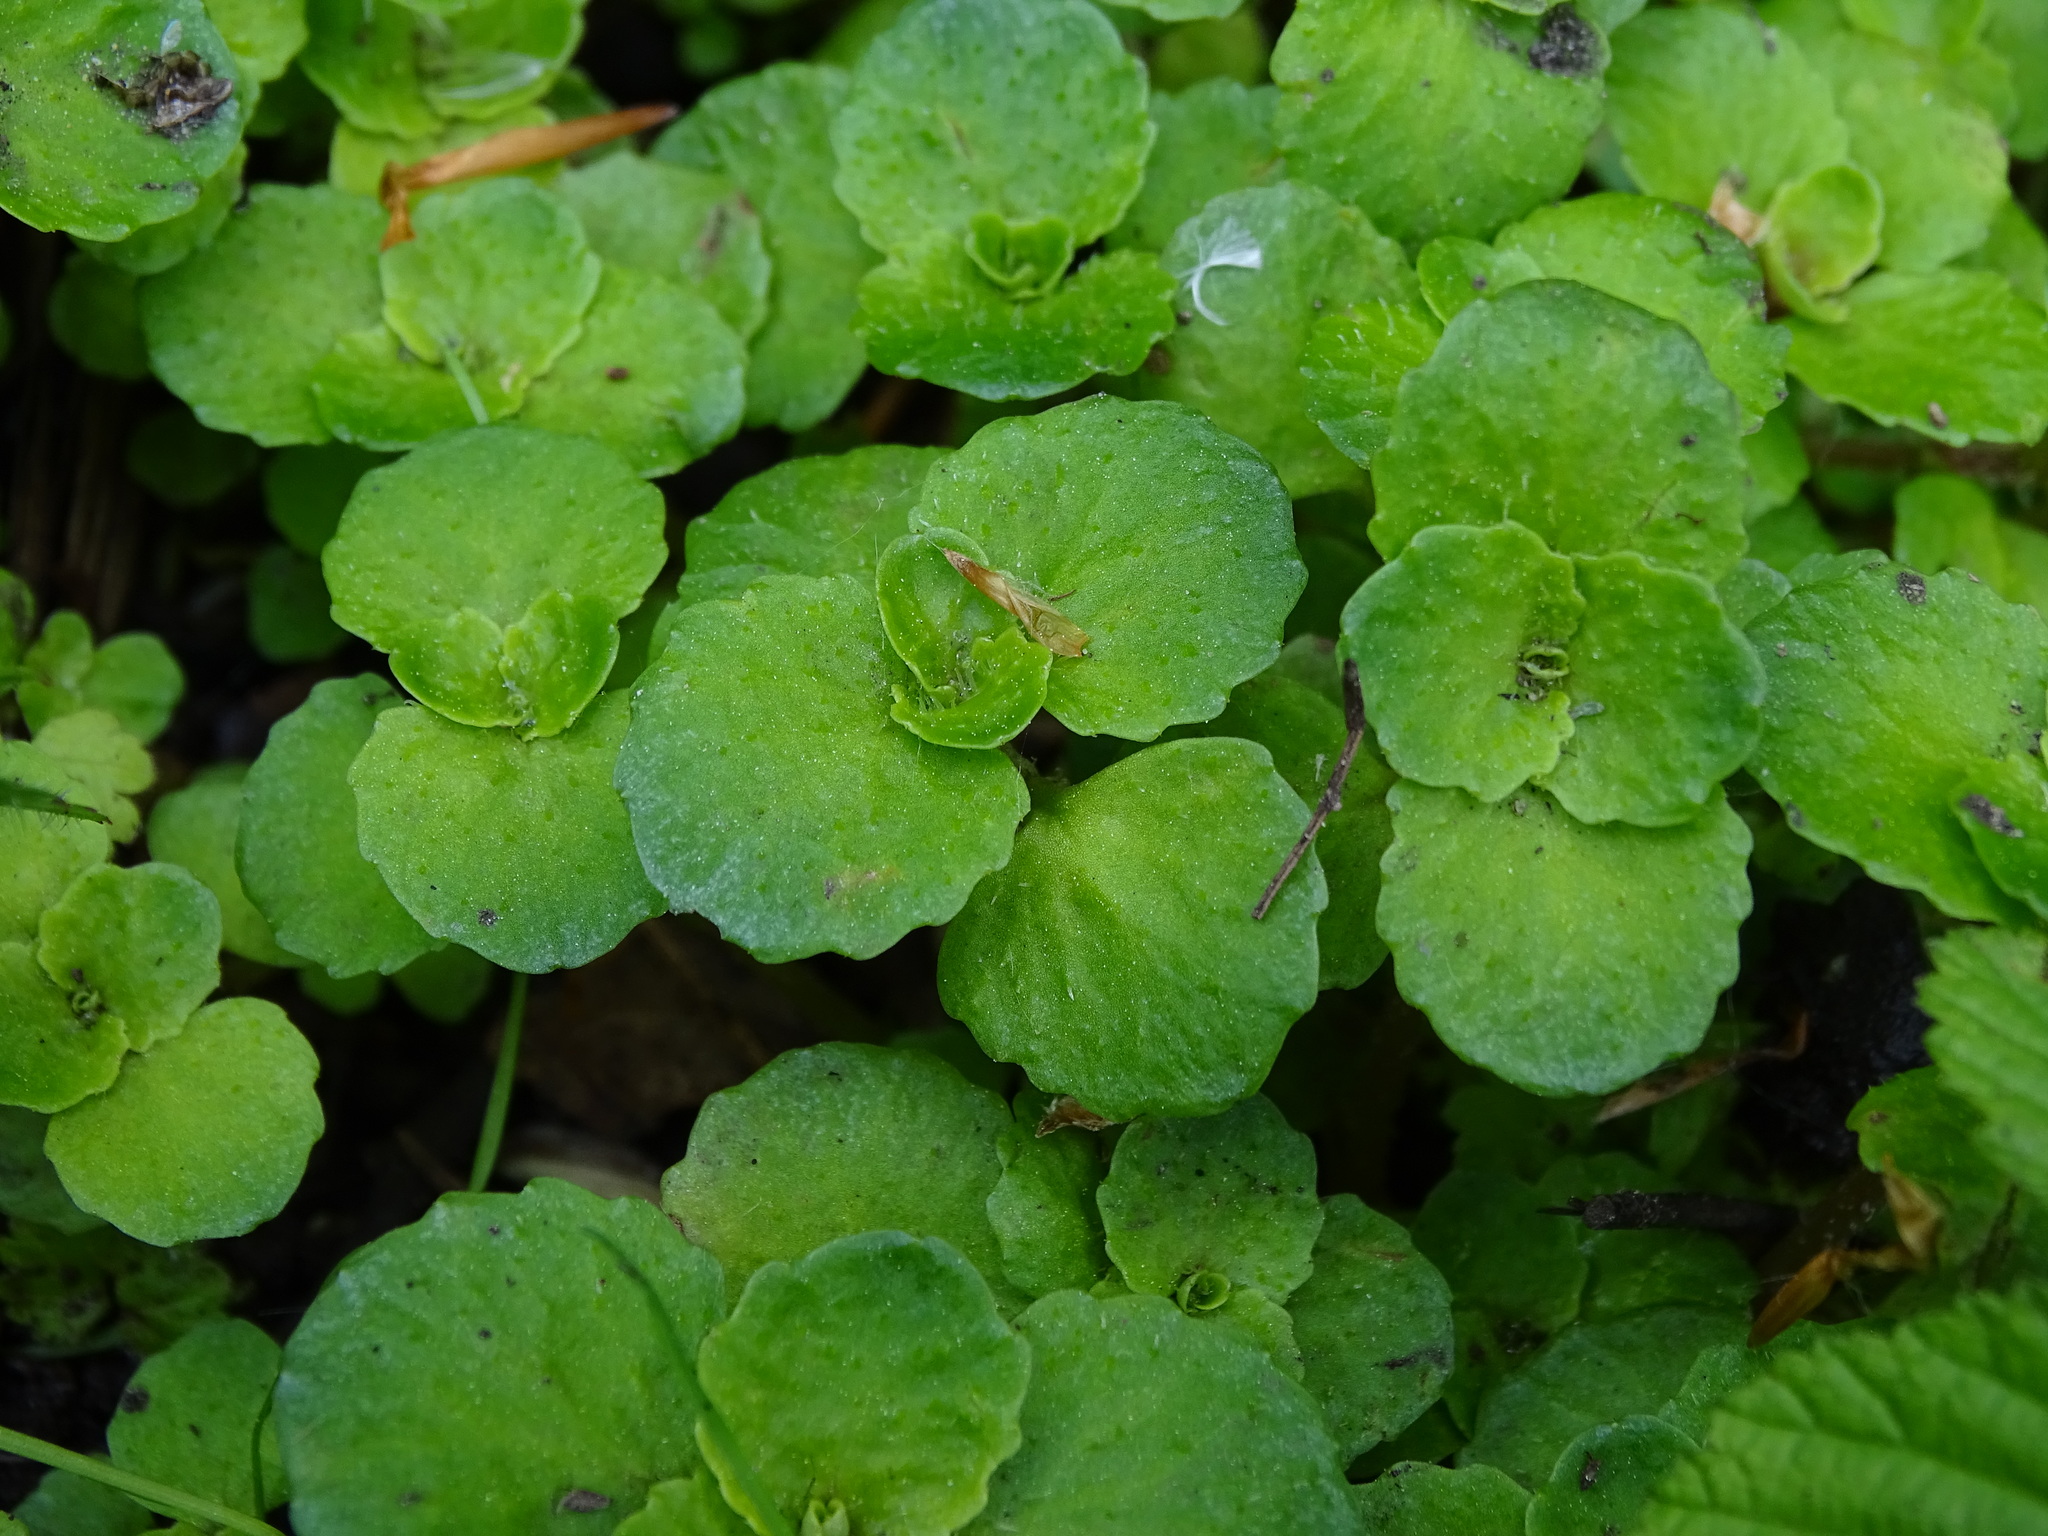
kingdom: Plantae
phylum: Tracheophyta
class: Magnoliopsida
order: Saxifragales
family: Saxifragaceae
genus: Chrysosplenium
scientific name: Chrysosplenium oppositifolium
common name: Opposite-leaved golden-saxifrage
